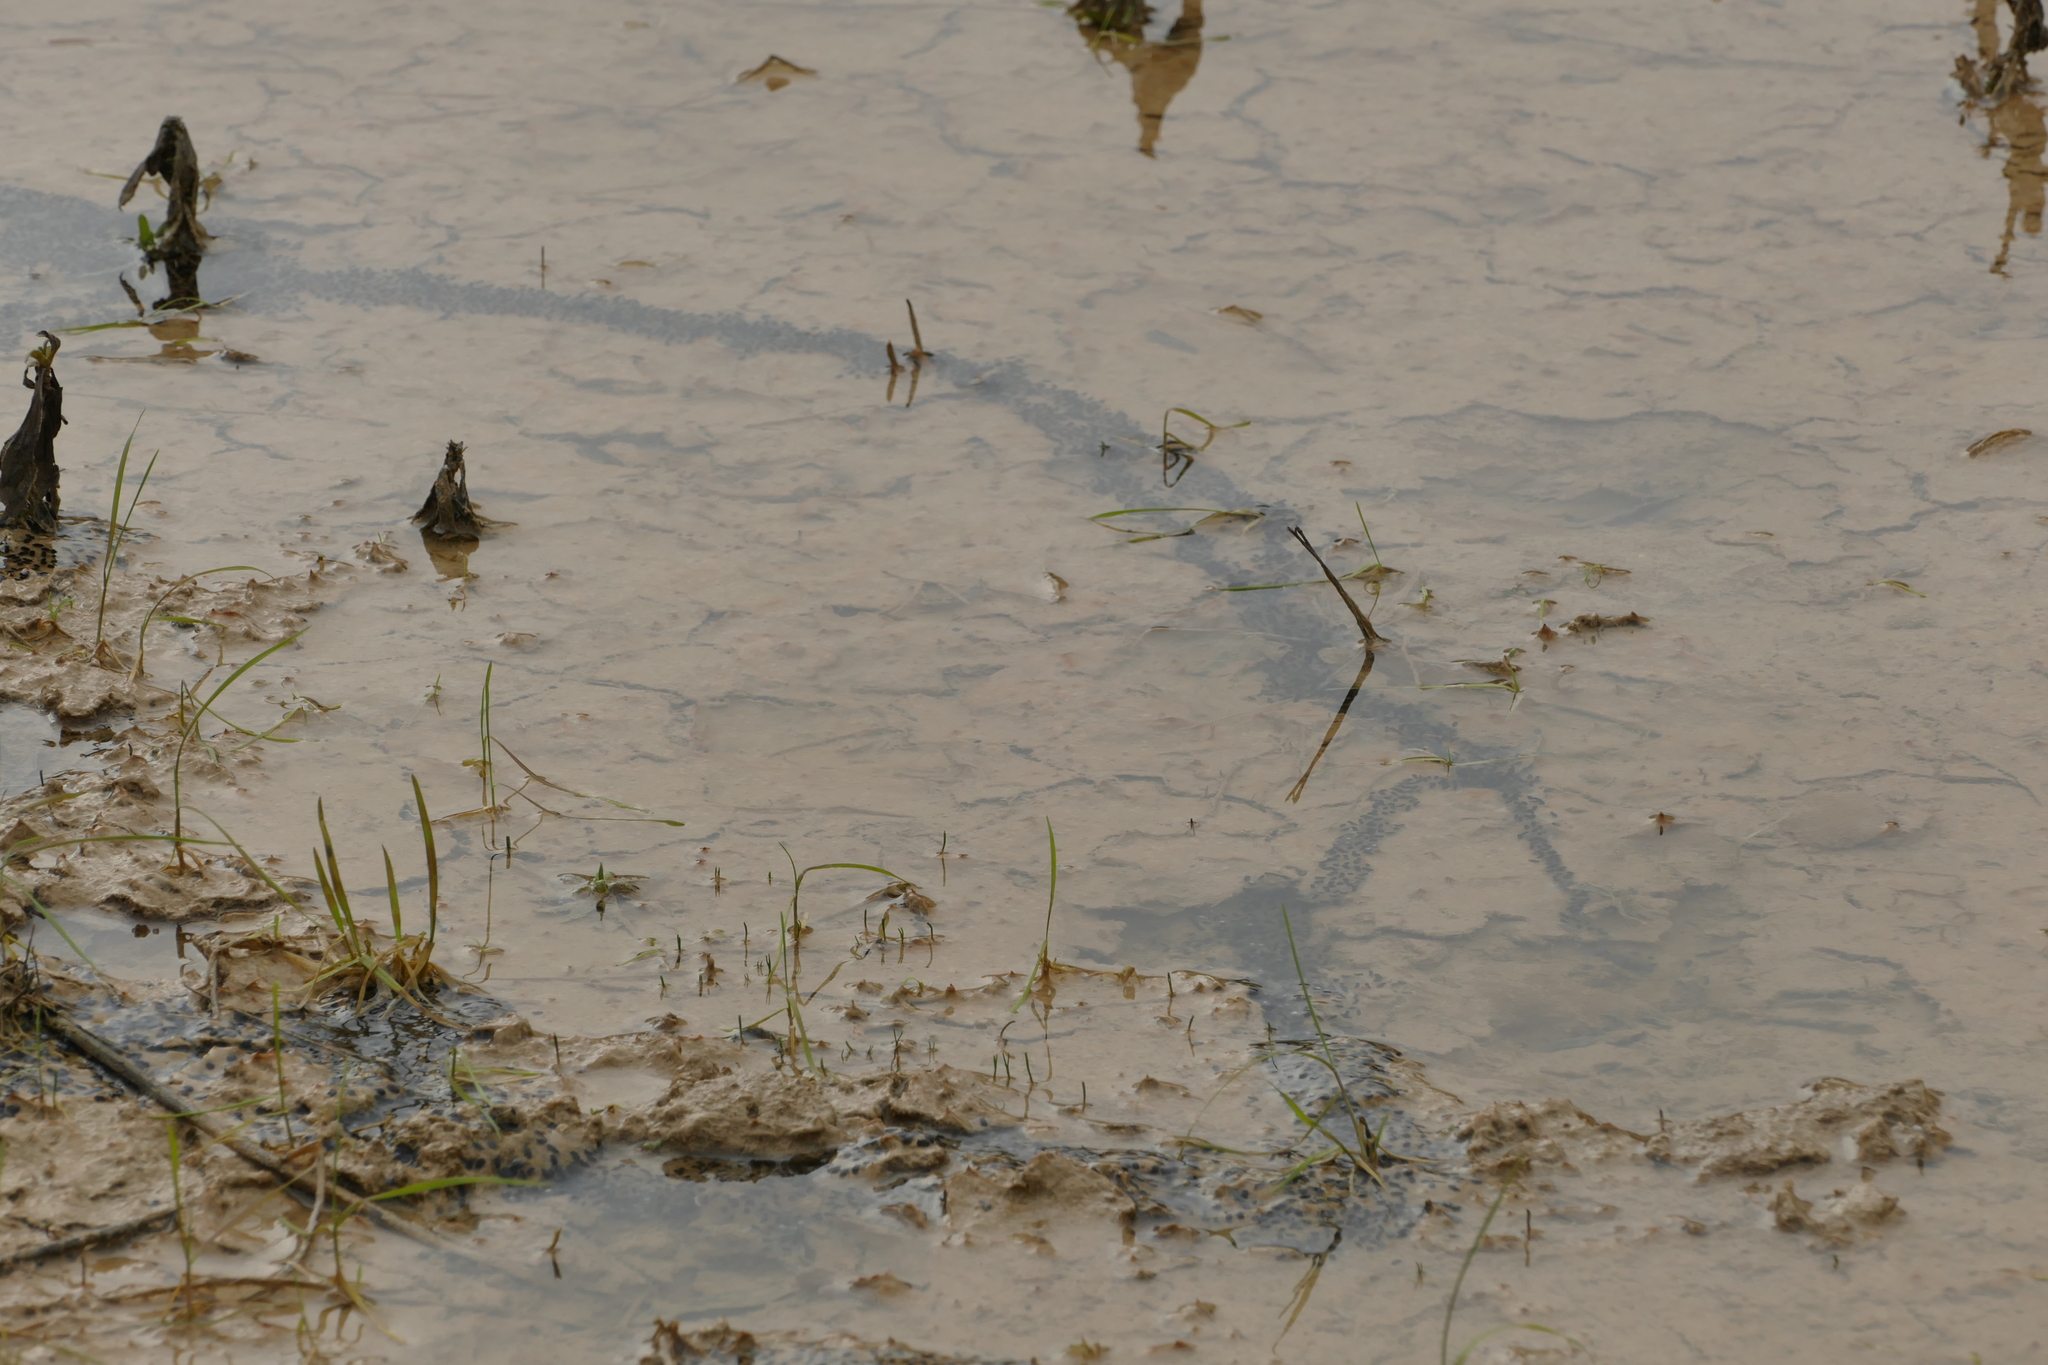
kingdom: Animalia
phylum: Chordata
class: Amphibia
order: Anura
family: Bufonidae
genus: Epidalea
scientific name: Epidalea calamita
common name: Natterjack toad
